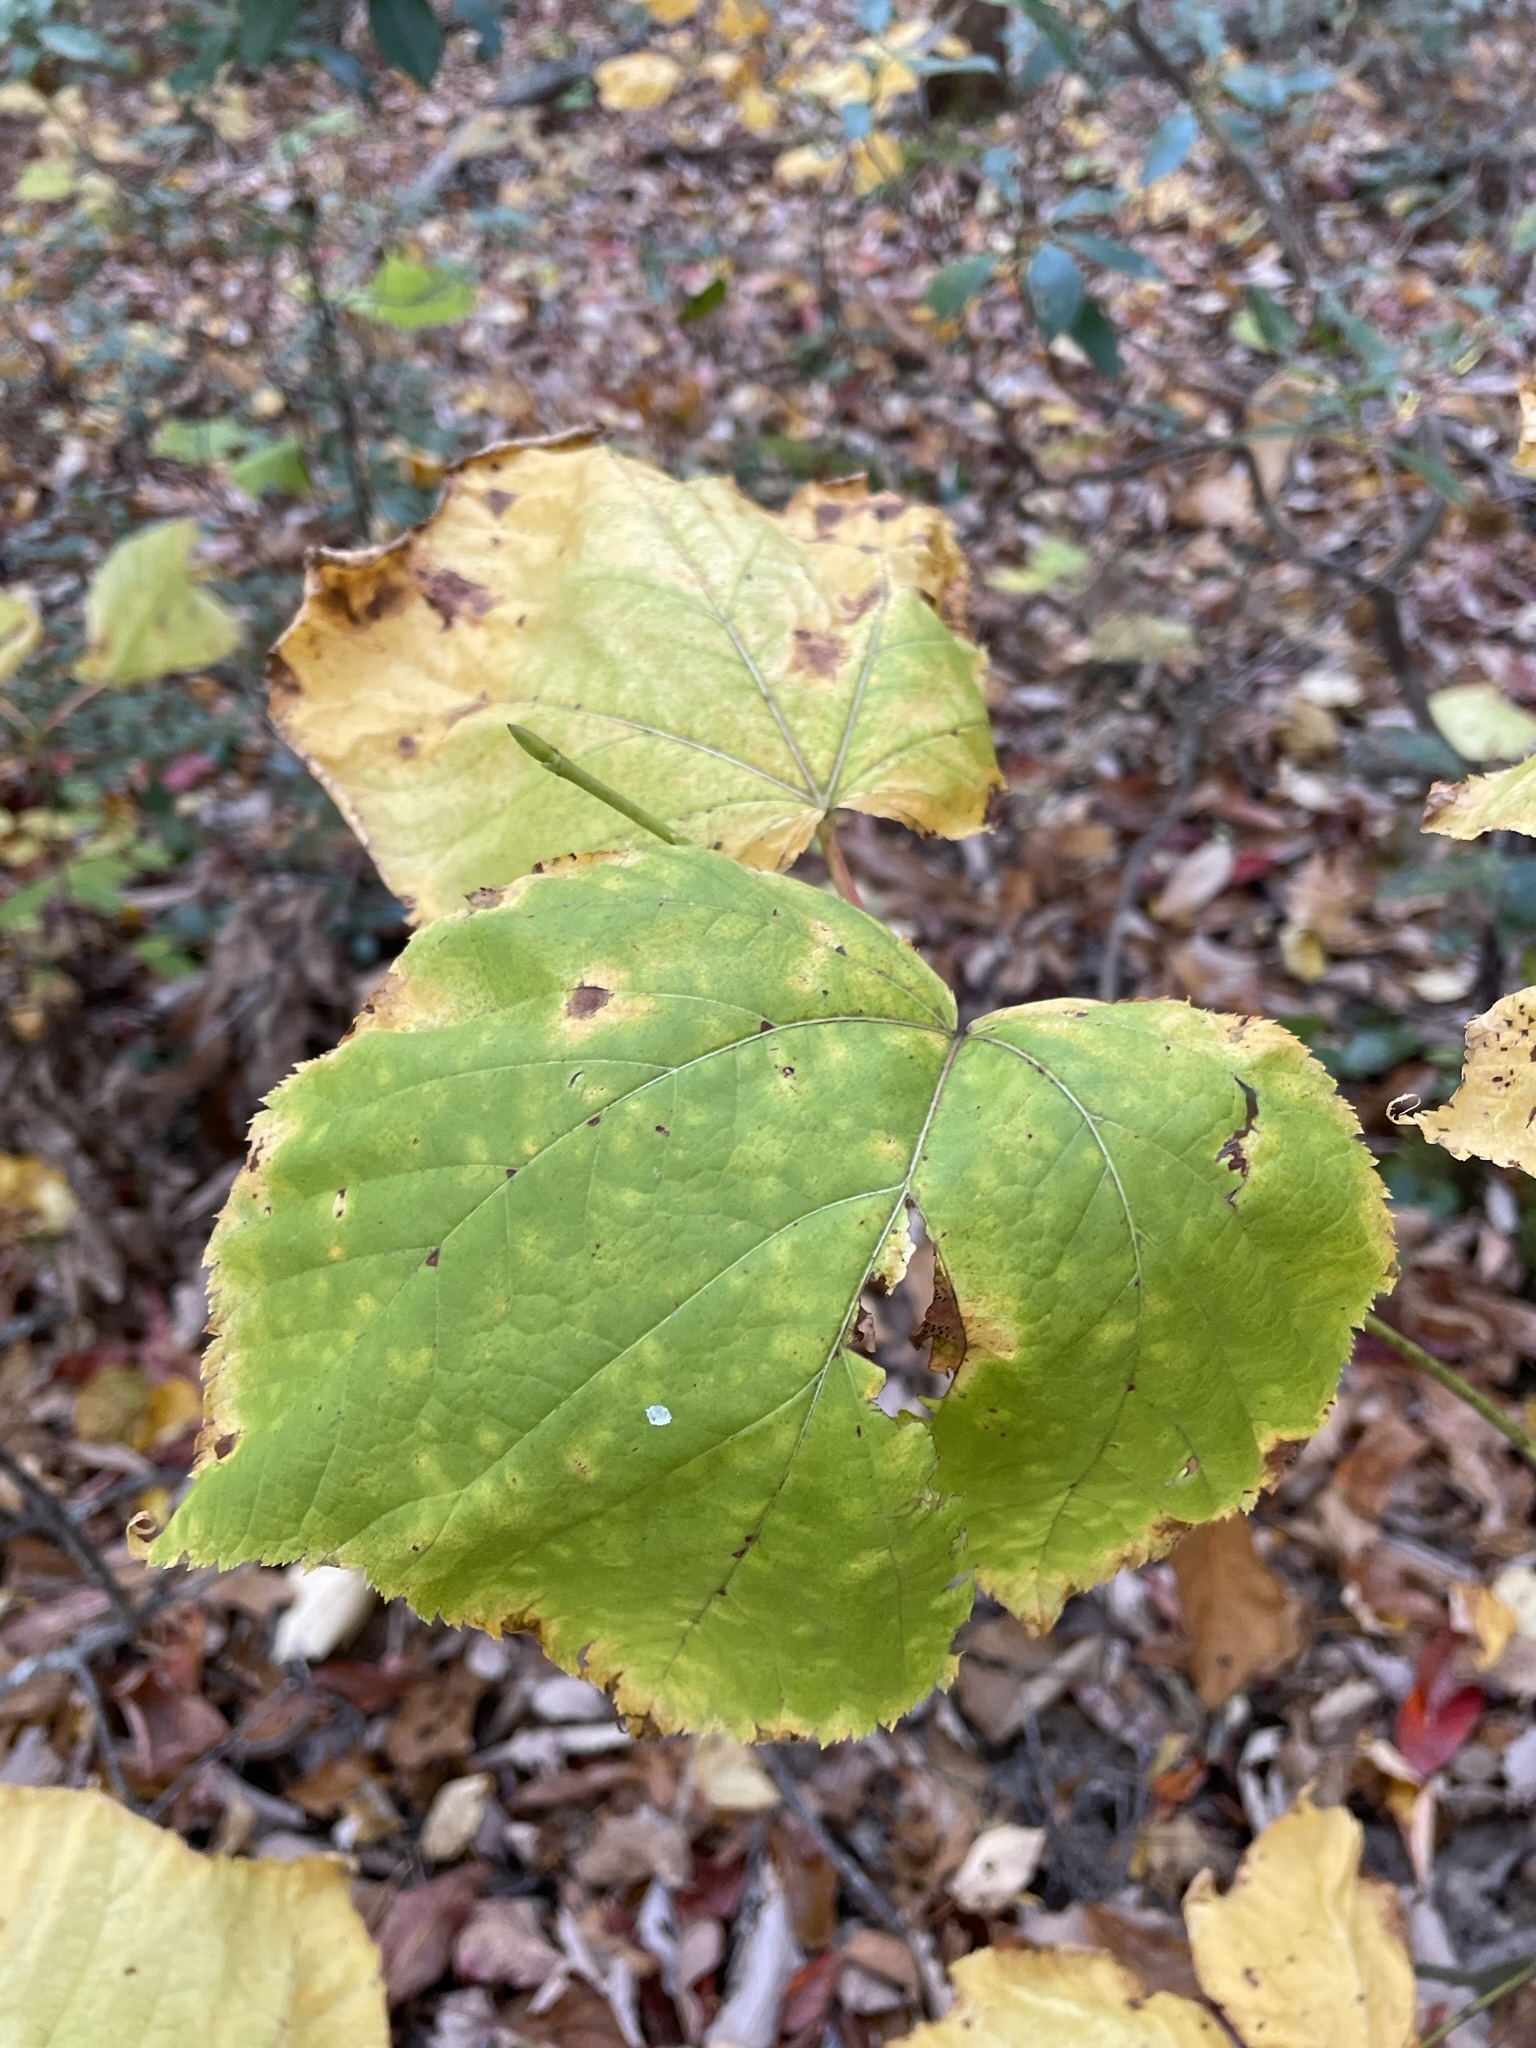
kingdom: Plantae
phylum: Tracheophyta
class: Magnoliopsida
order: Sapindales
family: Sapindaceae
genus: Acer
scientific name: Acer pensylvanicum
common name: Moosewood
